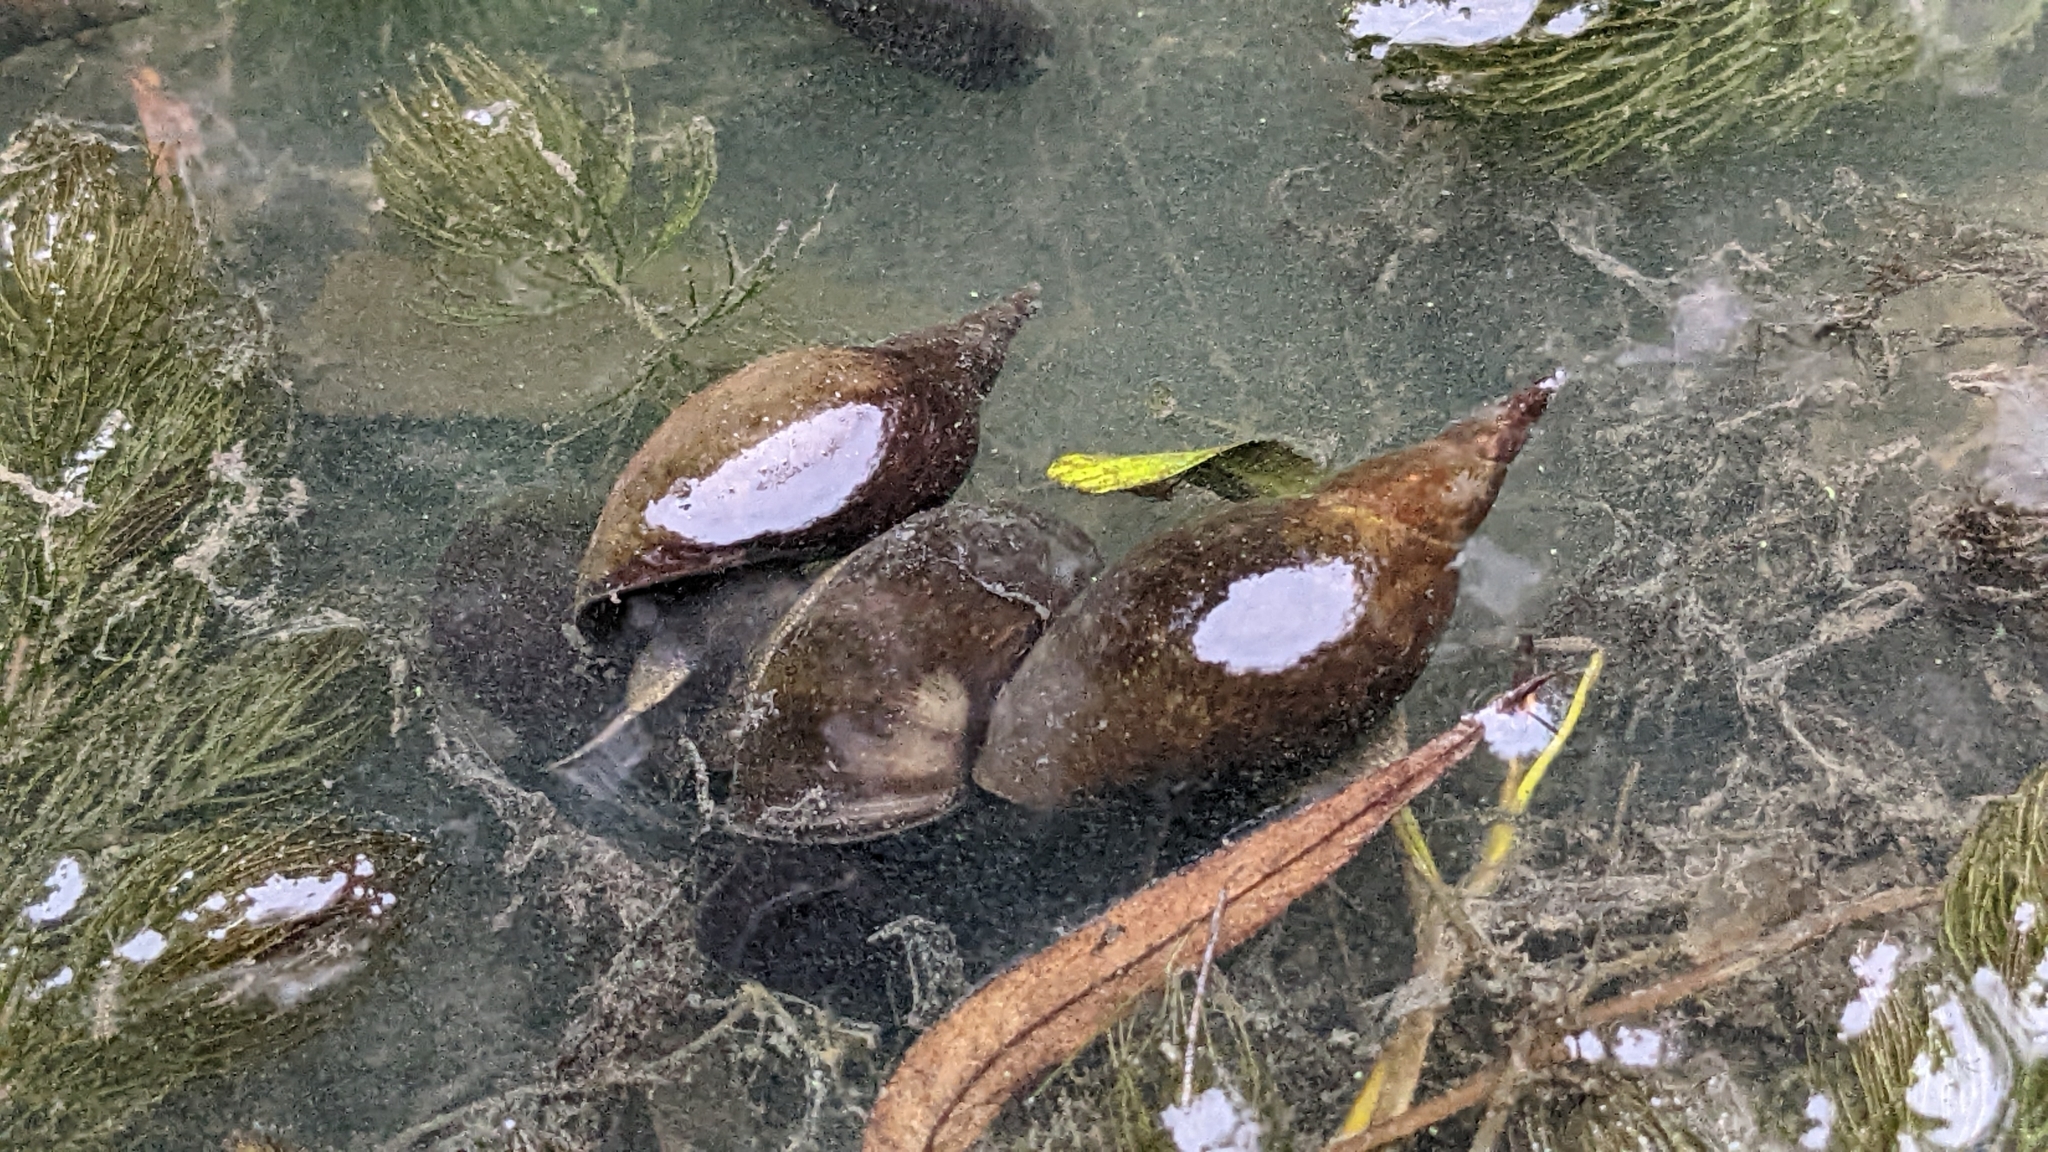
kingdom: Animalia
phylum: Mollusca
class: Gastropoda
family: Lymnaeidae
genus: Lymnaea
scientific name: Lymnaea stagnalis
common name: Great pond snail
